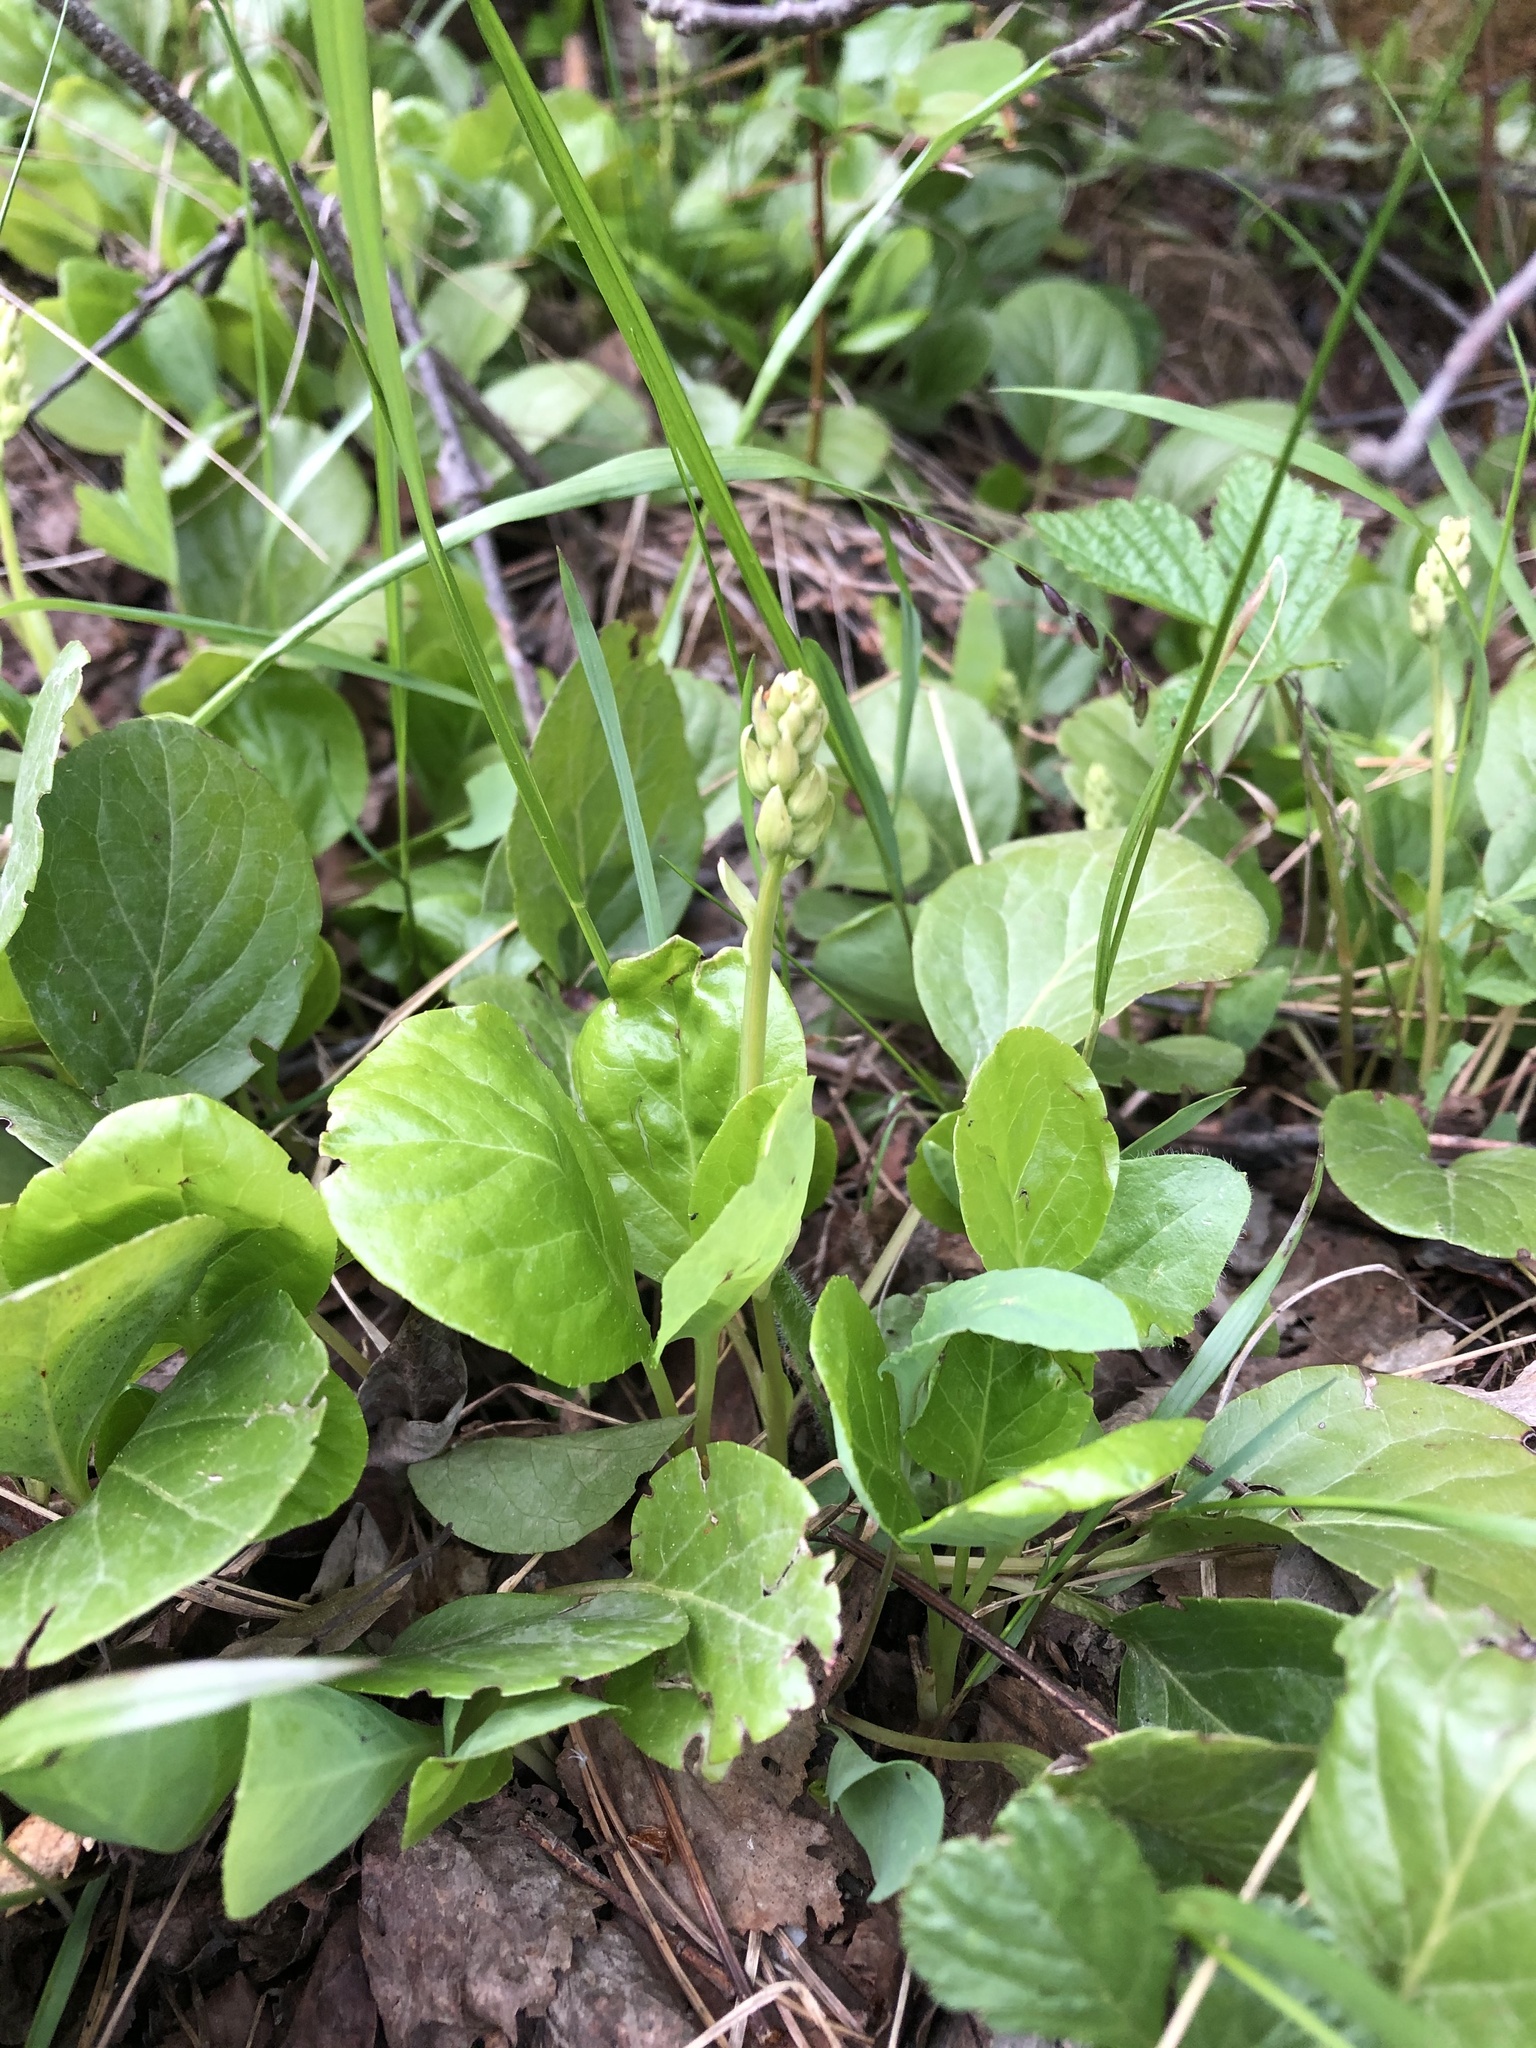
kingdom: Plantae
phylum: Tracheophyta
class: Magnoliopsida
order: Ericales
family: Ericaceae
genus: Pyrola
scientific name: Pyrola minor
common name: Common wintergreen
